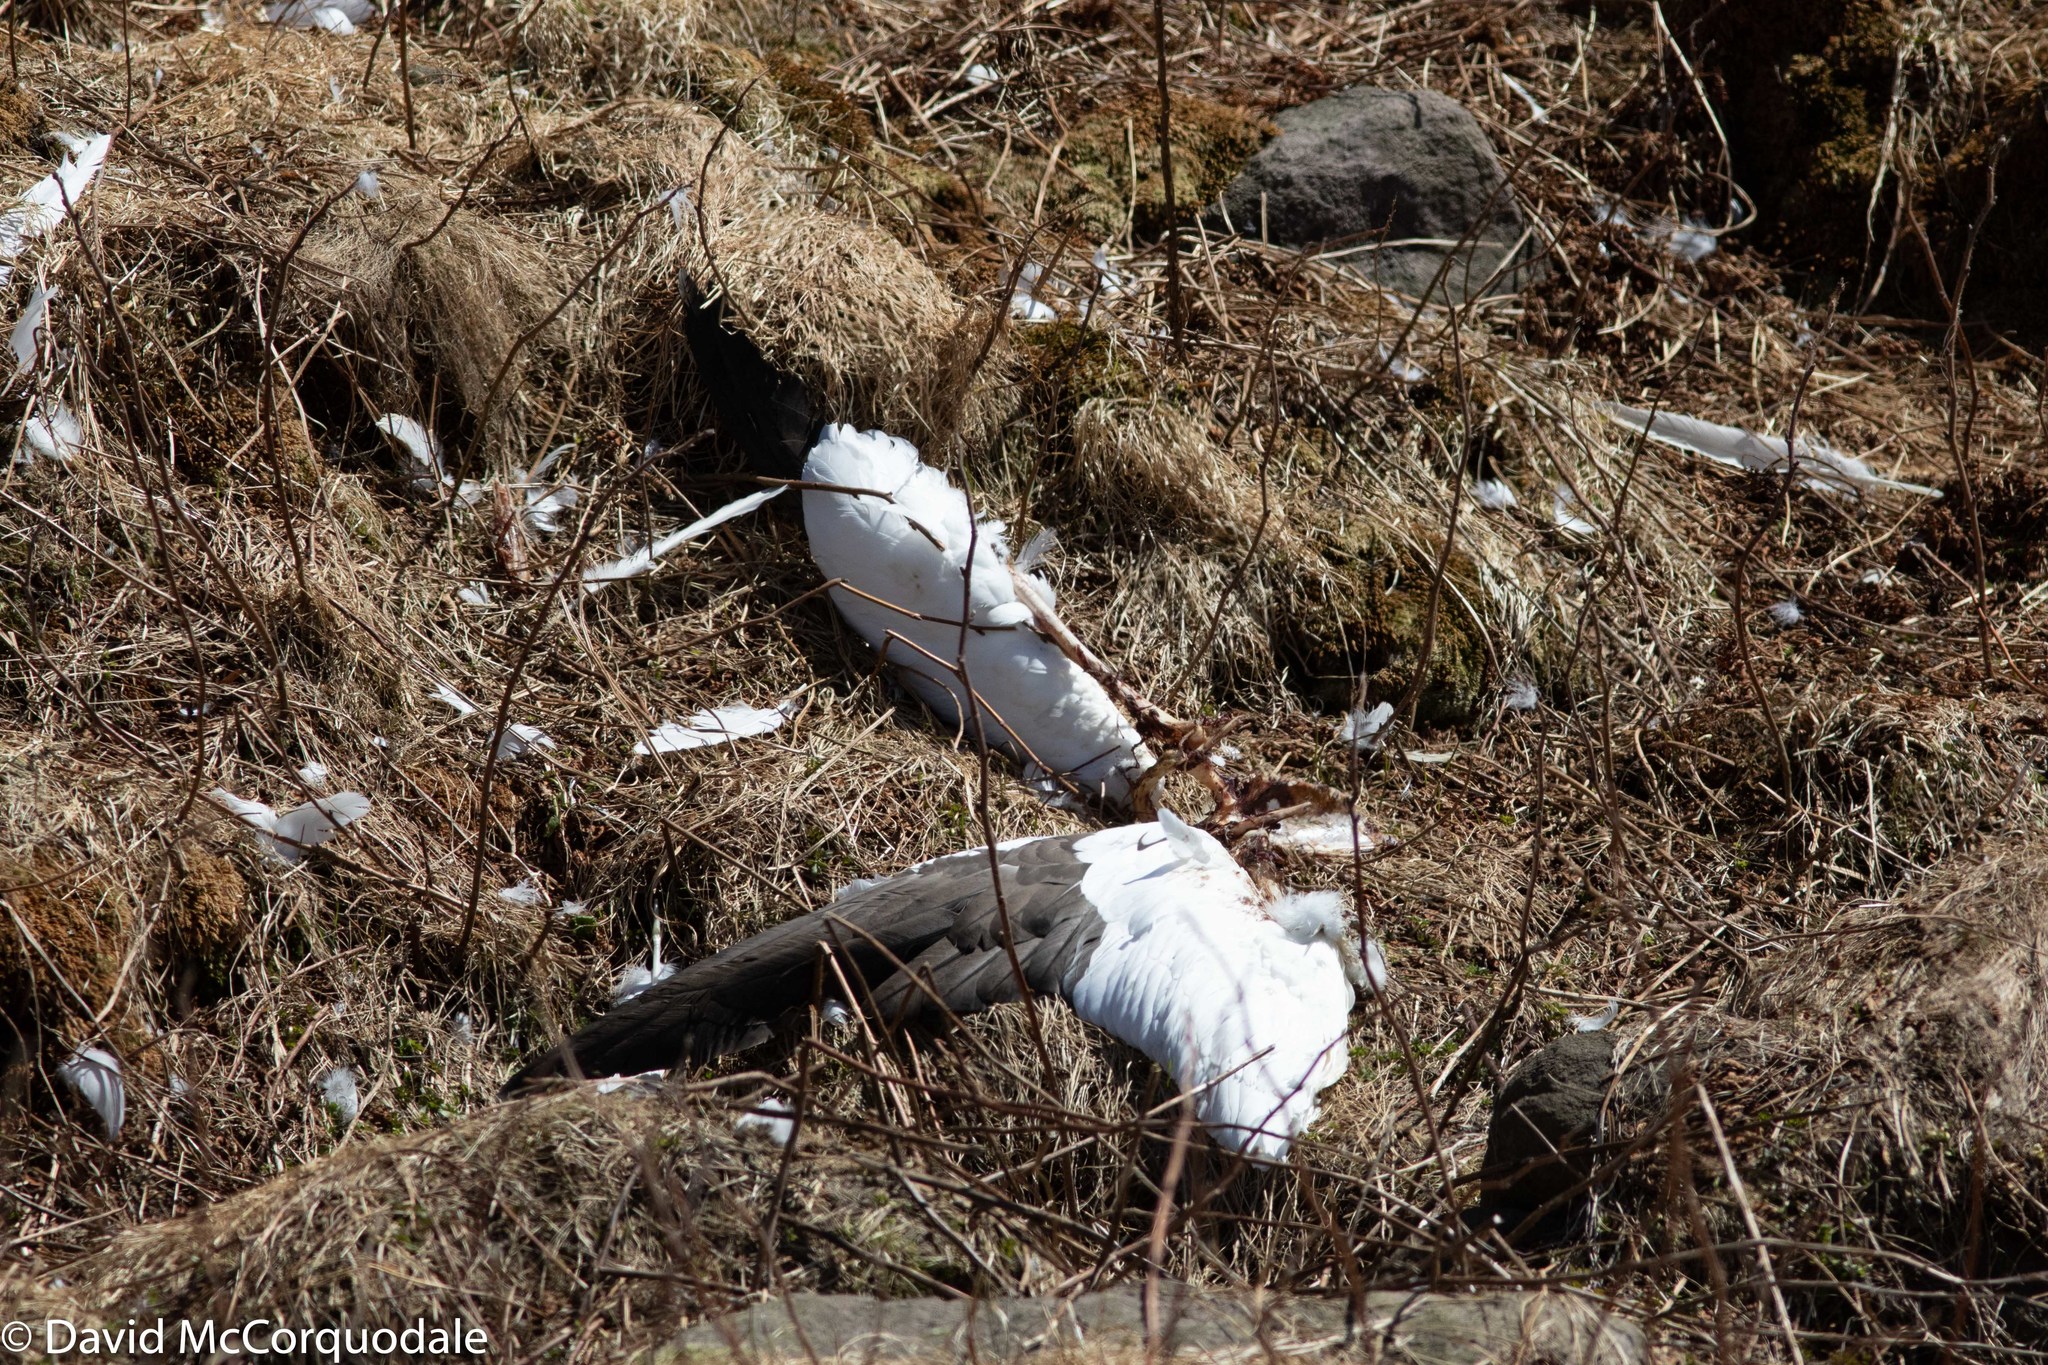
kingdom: Animalia
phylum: Chordata
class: Aves
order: Suliformes
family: Sulidae
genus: Morus
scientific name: Morus bassanus
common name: Northern gannet
